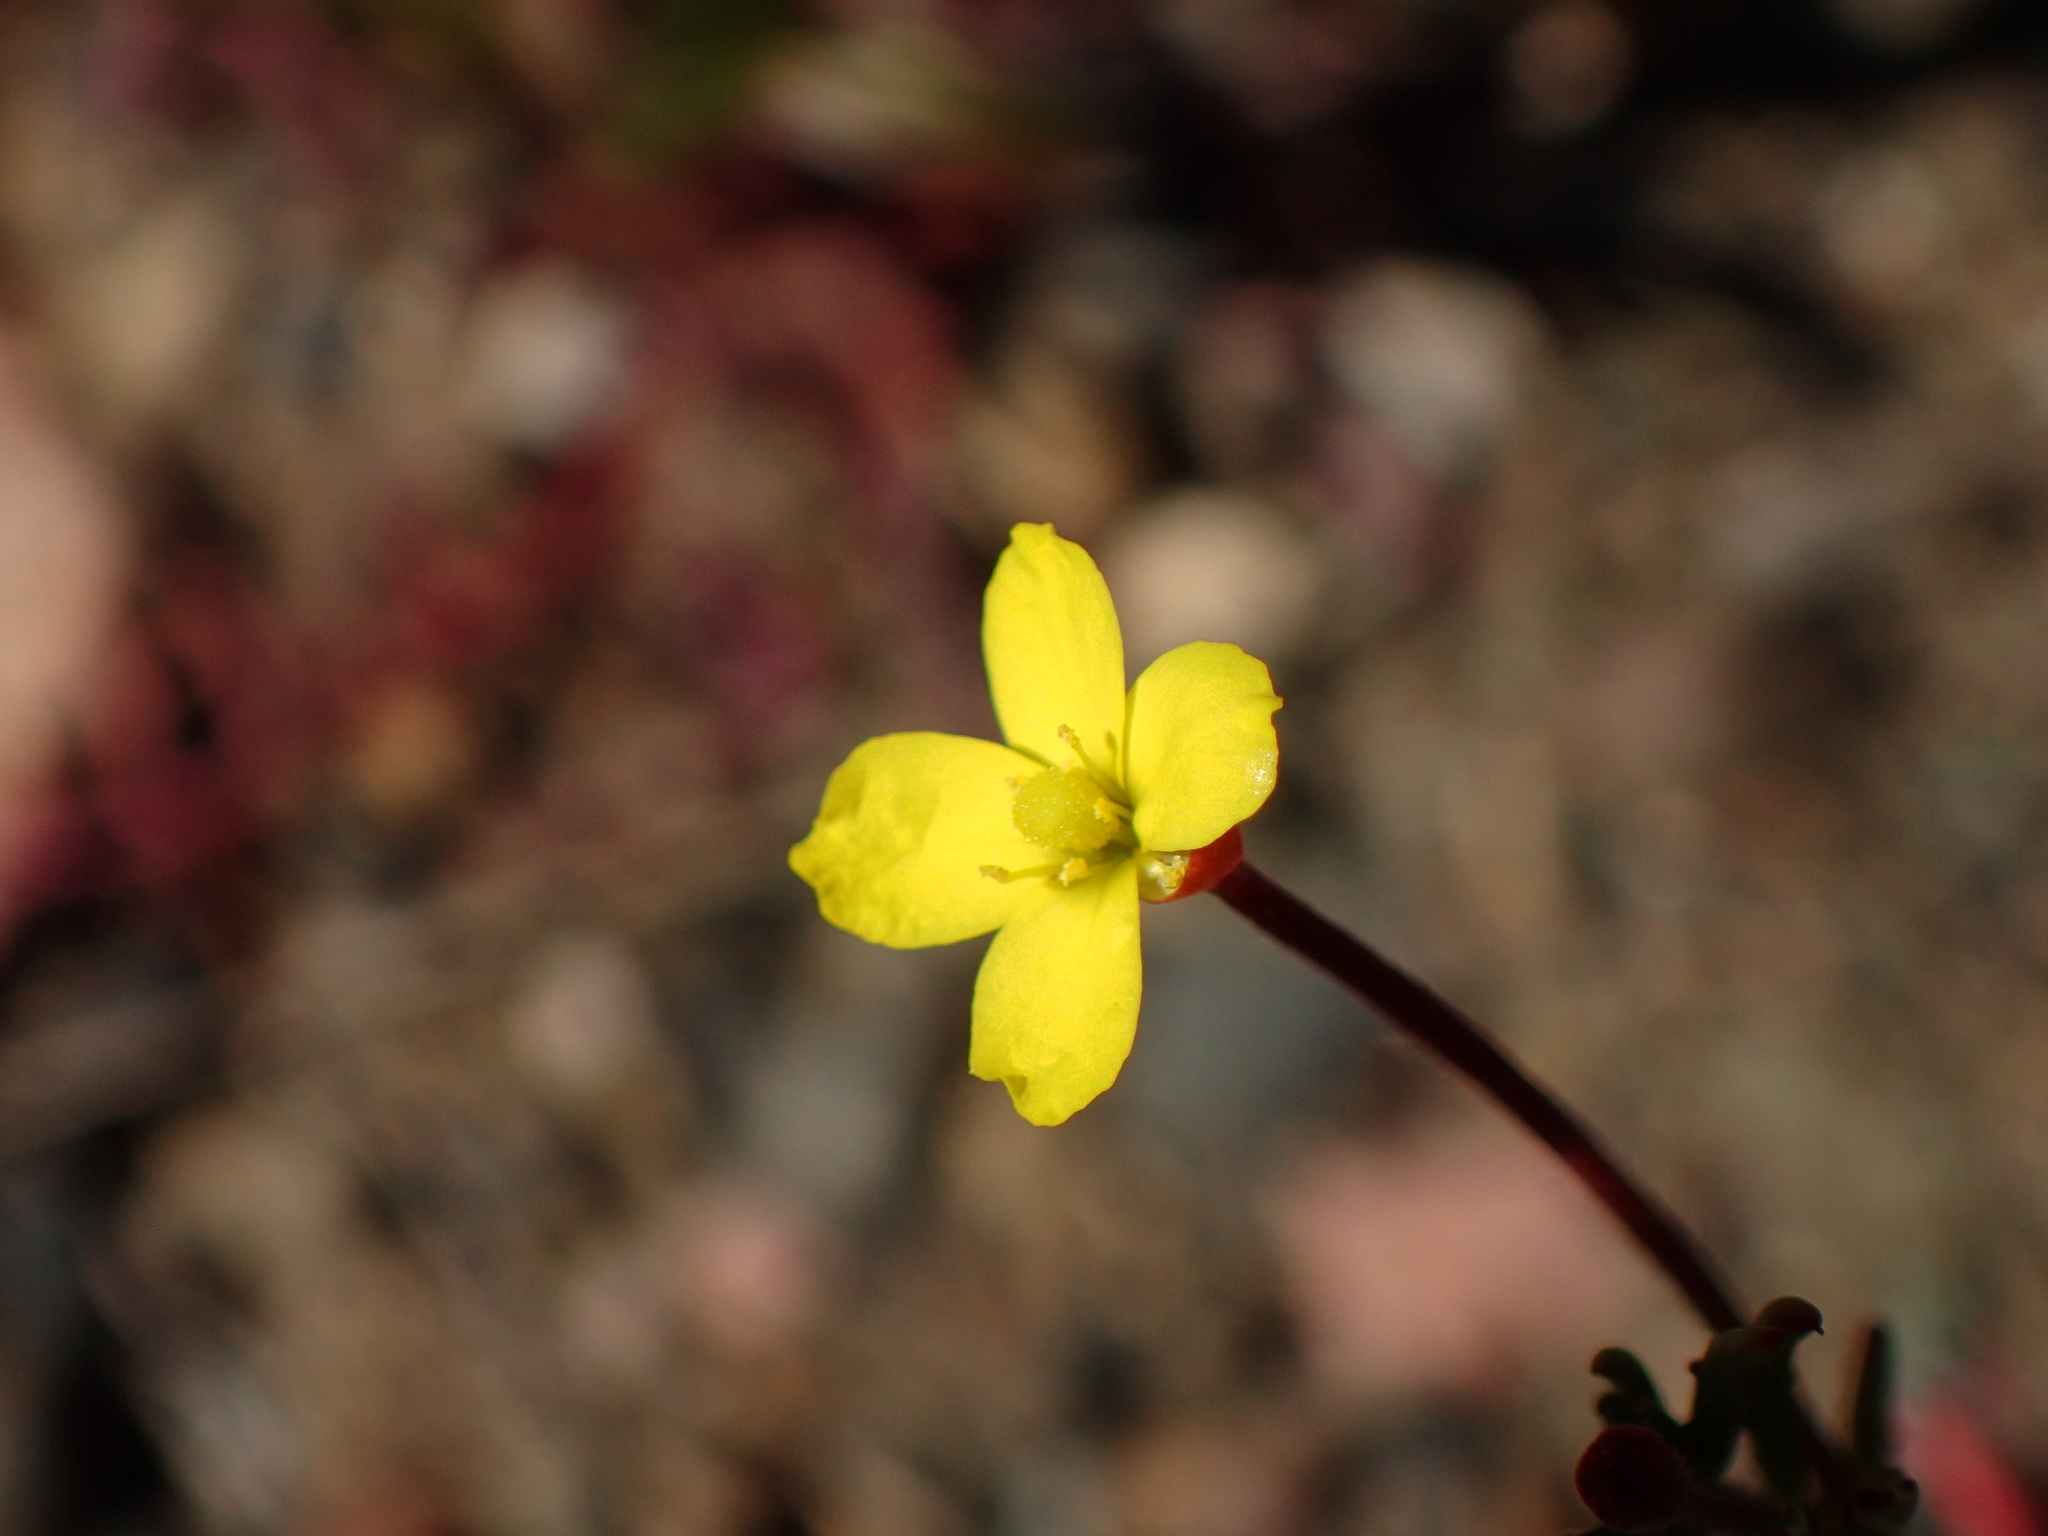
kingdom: Plantae
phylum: Tracheophyta
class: Magnoliopsida
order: Myrtales
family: Onagraceae
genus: Camissonia
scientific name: Camissonia strigulosa
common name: Contorted-primrose
